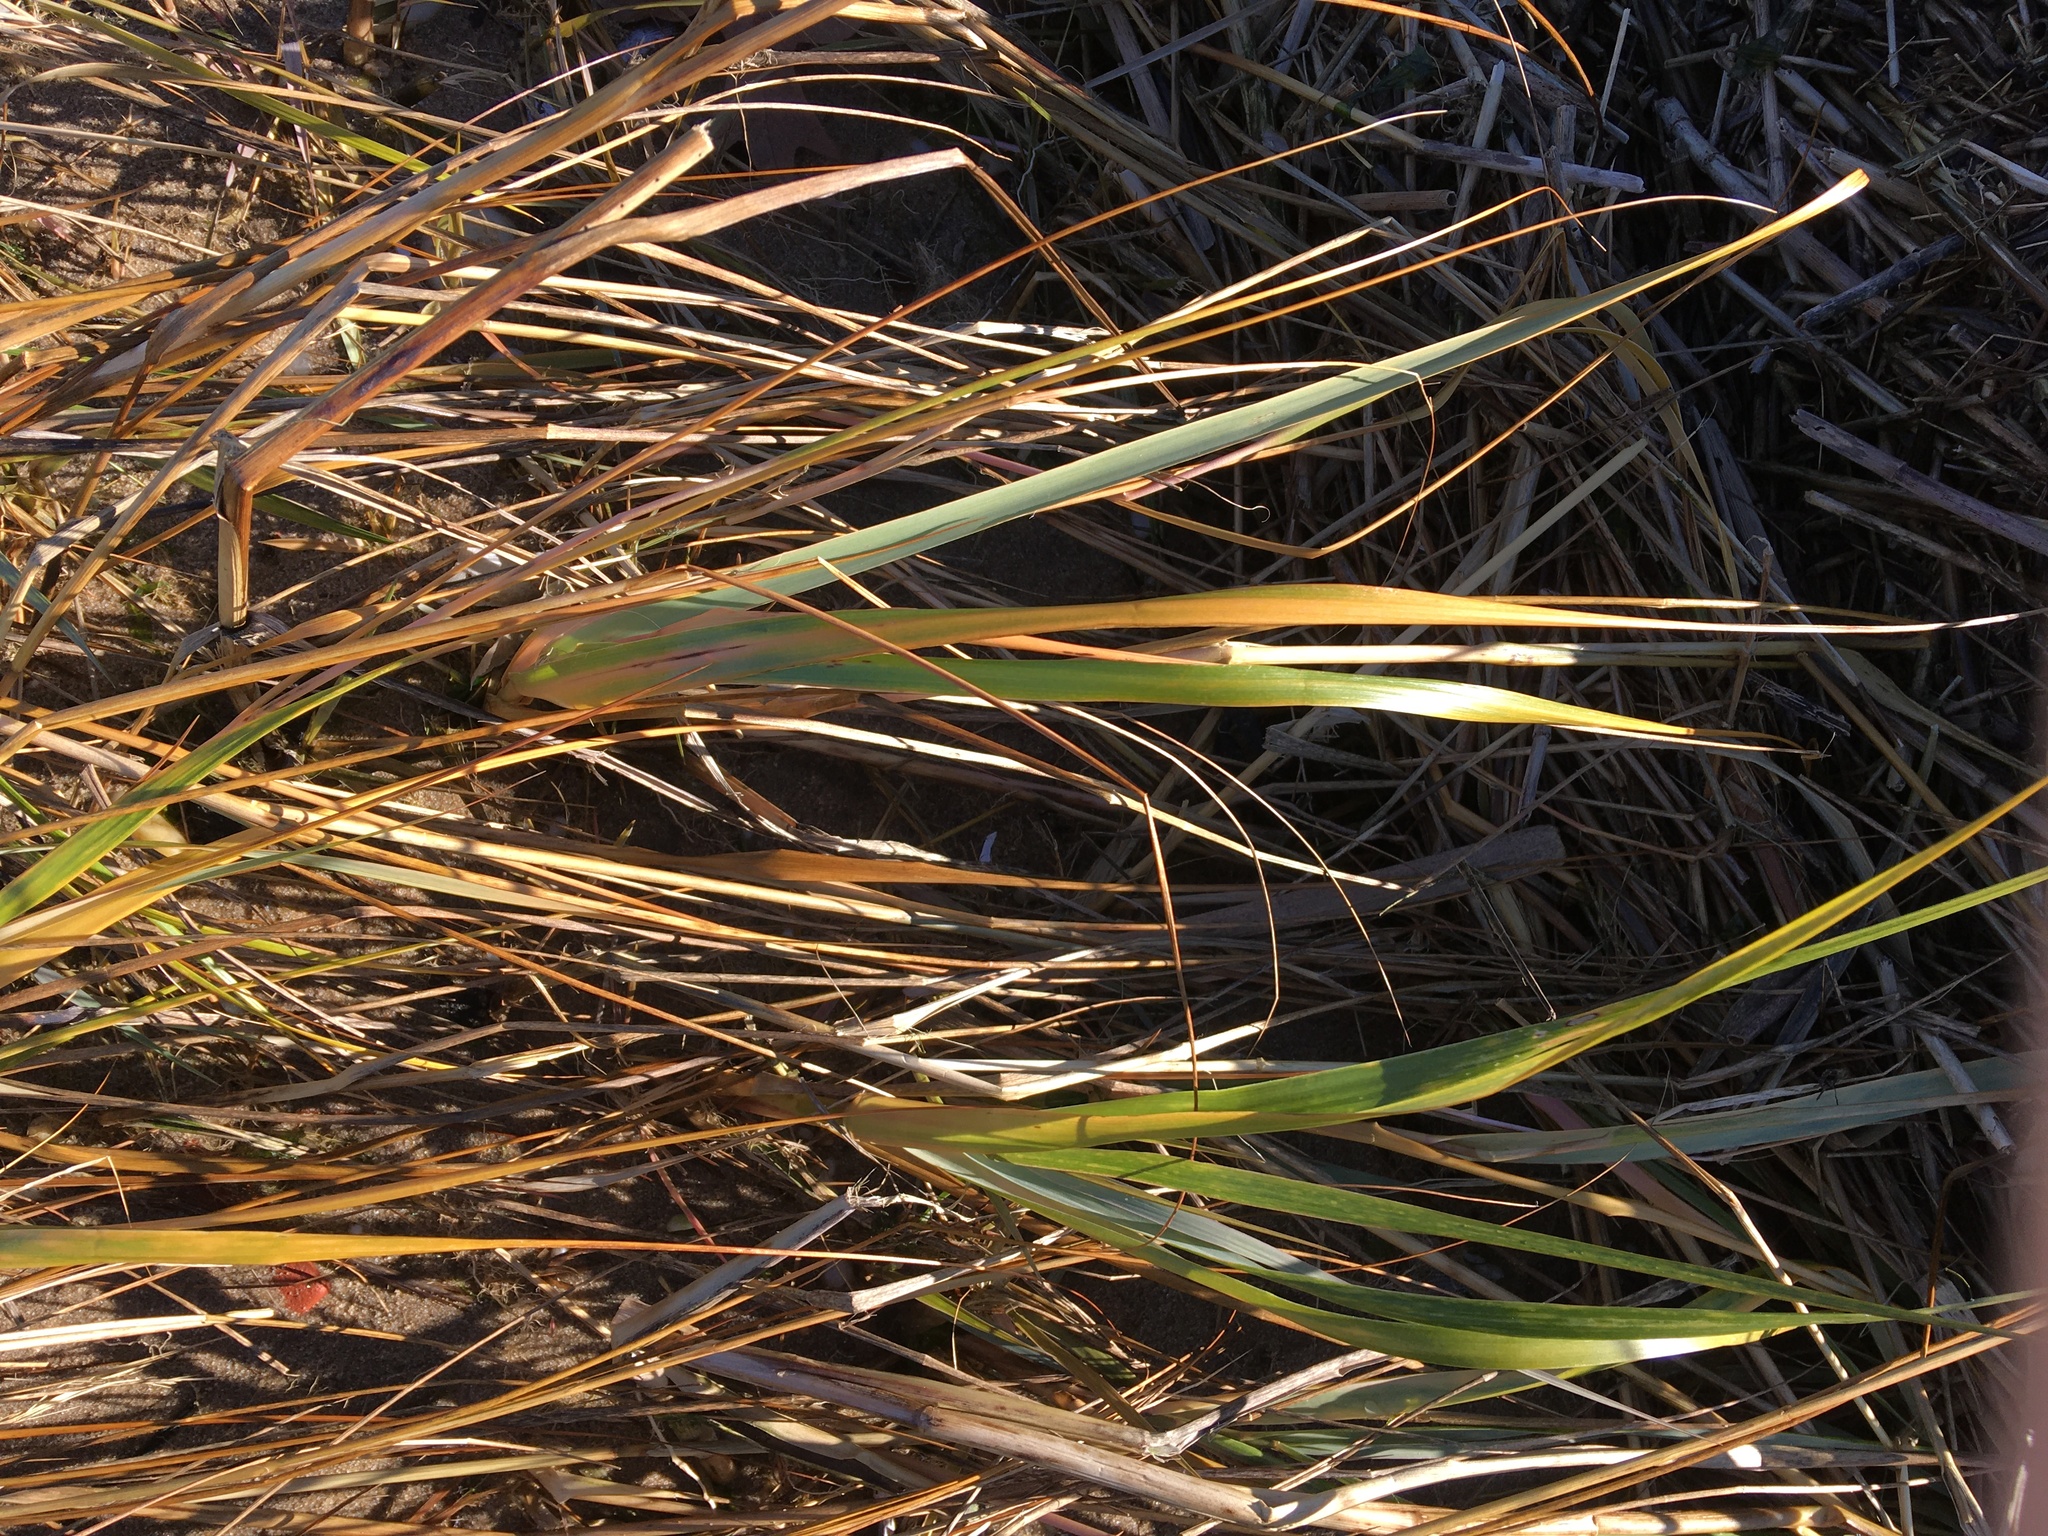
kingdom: Plantae
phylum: Tracheophyta
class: Liliopsida
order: Poales
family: Poaceae
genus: Sporobolus
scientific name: Sporobolus alterniflorus
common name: Atlantic cordgrass
